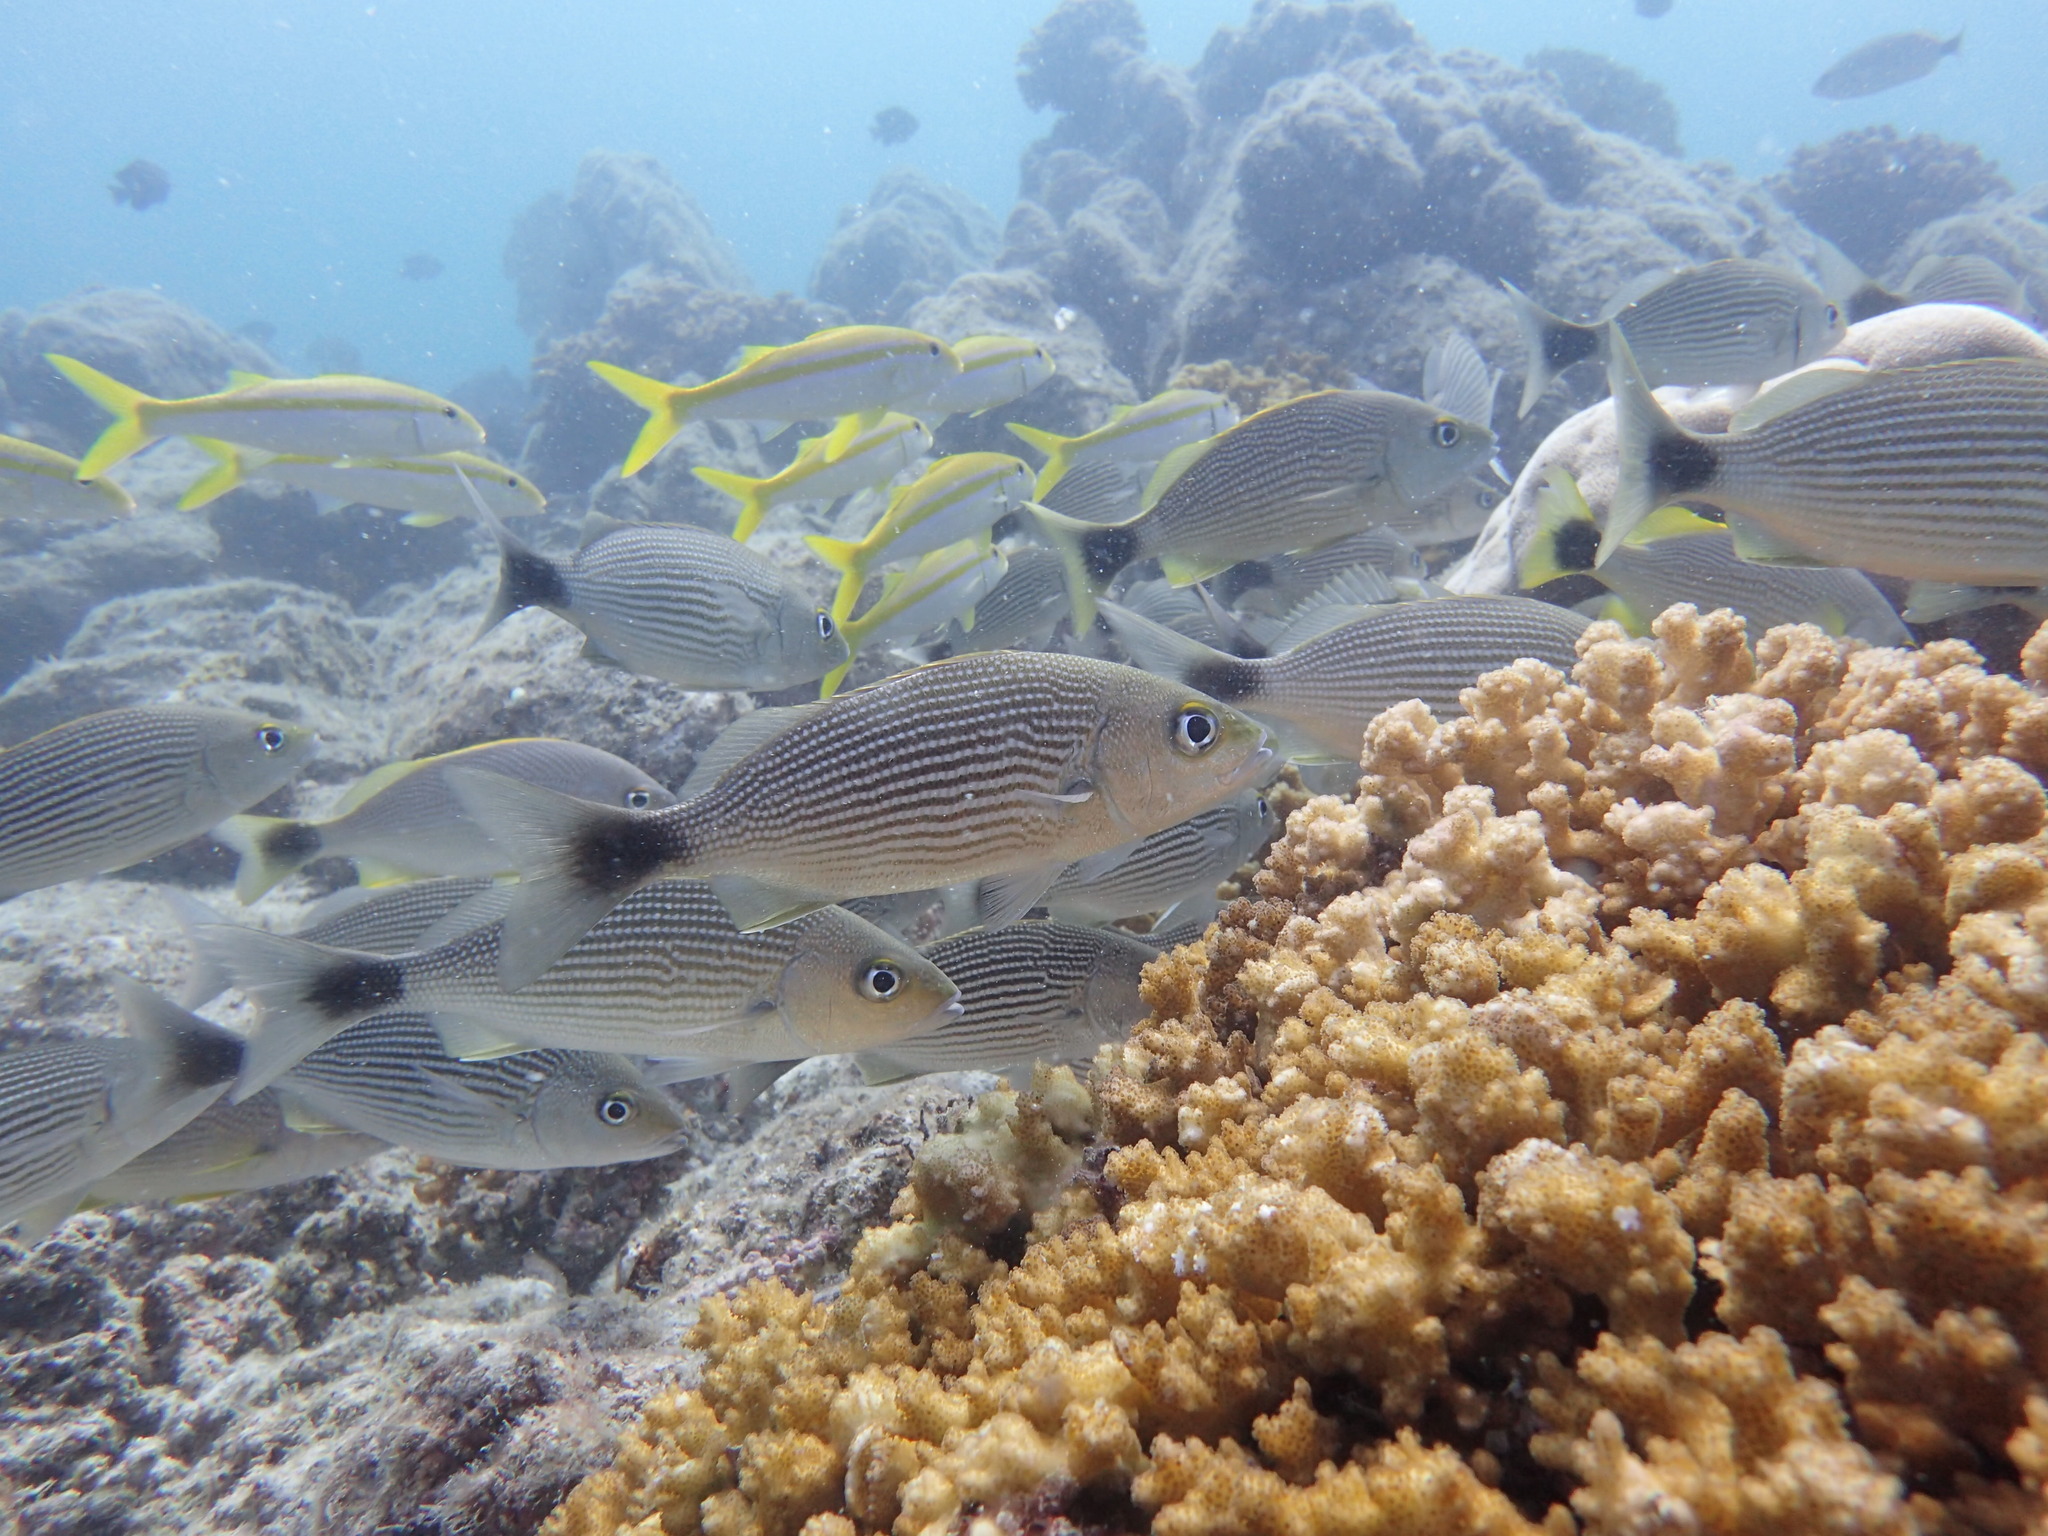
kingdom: Animalia
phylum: Chordata
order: Perciformes
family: Haemulidae
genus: Haemulon
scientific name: Haemulon maculicauda
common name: Spottail grunt
